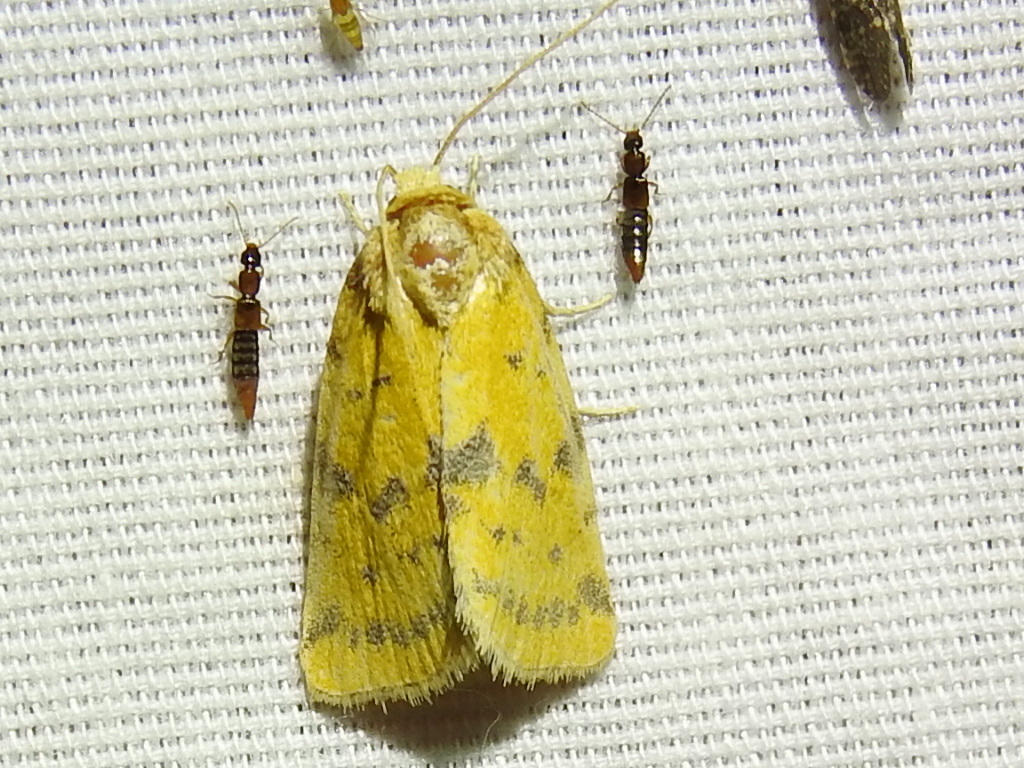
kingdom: Animalia
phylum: Arthropoda
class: Insecta
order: Lepidoptera
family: Noctuidae
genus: Azenia
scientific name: Azenia obtusa
